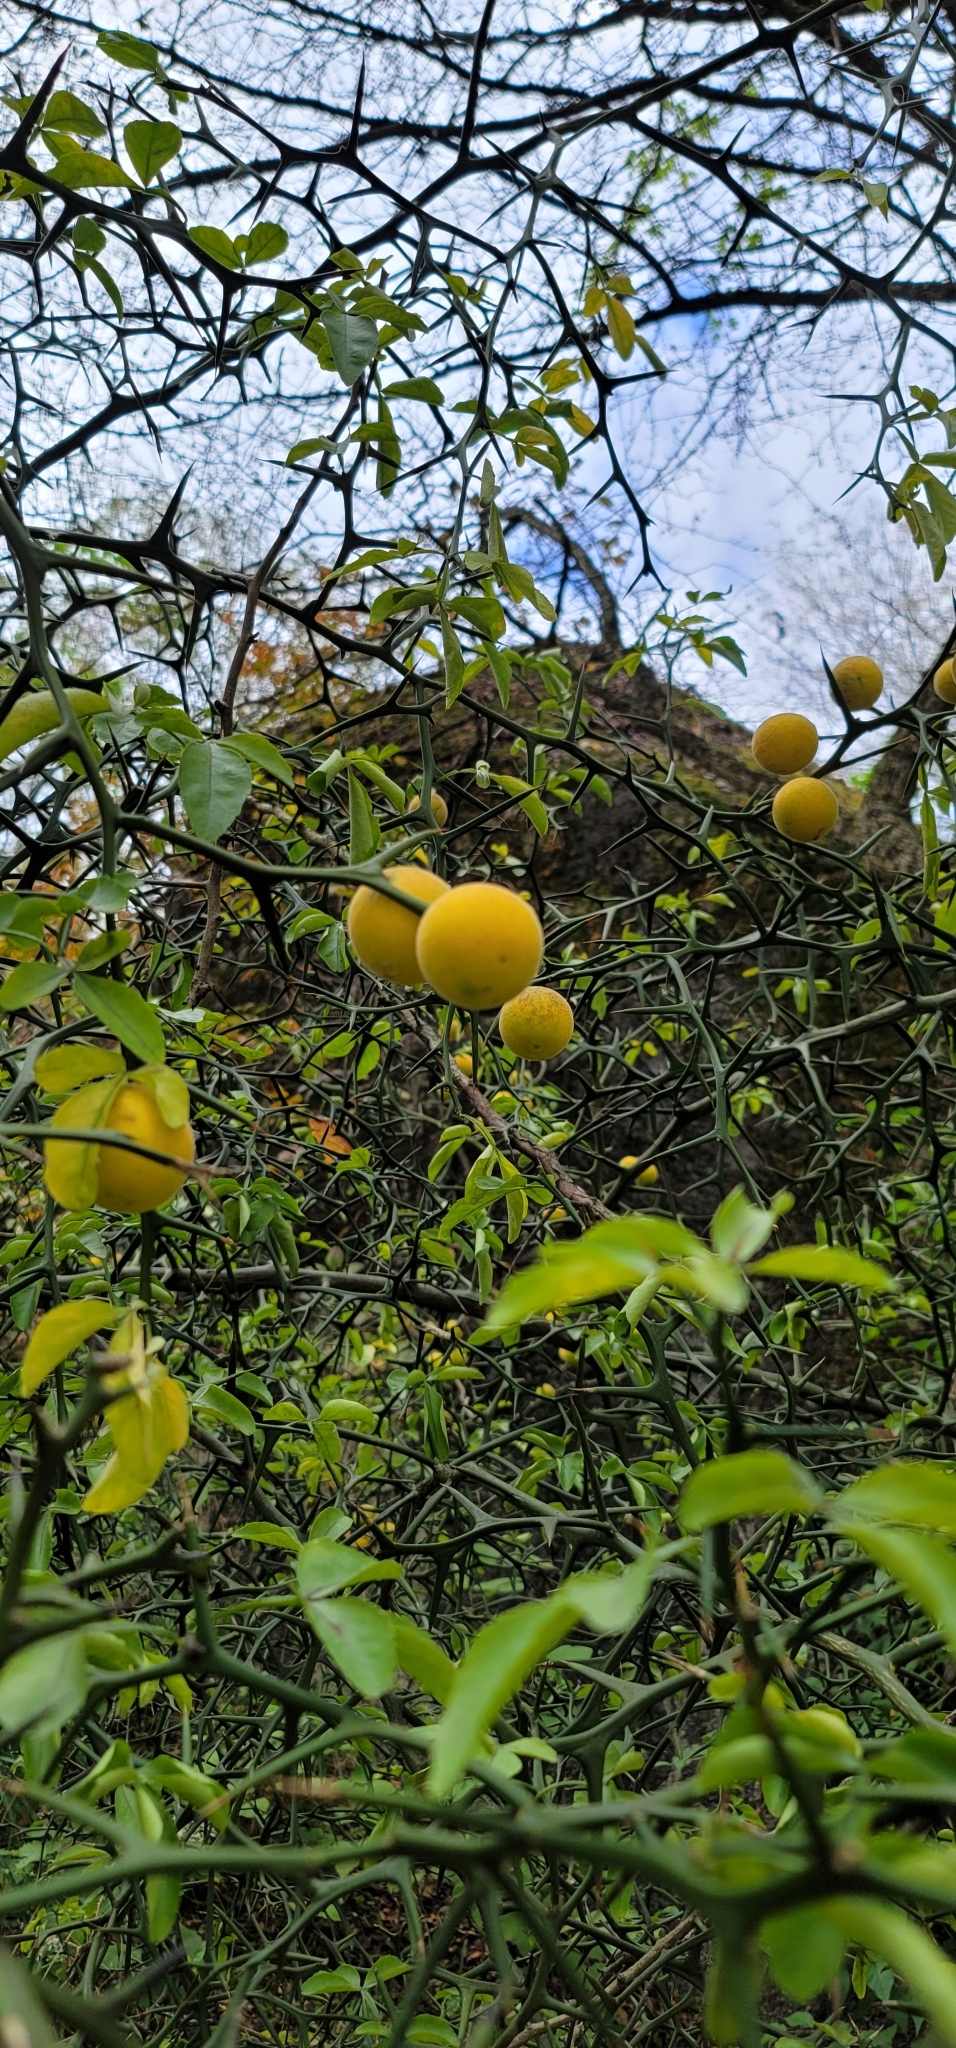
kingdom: Plantae
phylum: Tracheophyta
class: Magnoliopsida
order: Sapindales
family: Rutaceae
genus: Citrus
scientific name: Citrus trifoliata
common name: Japanese bitter-orange
